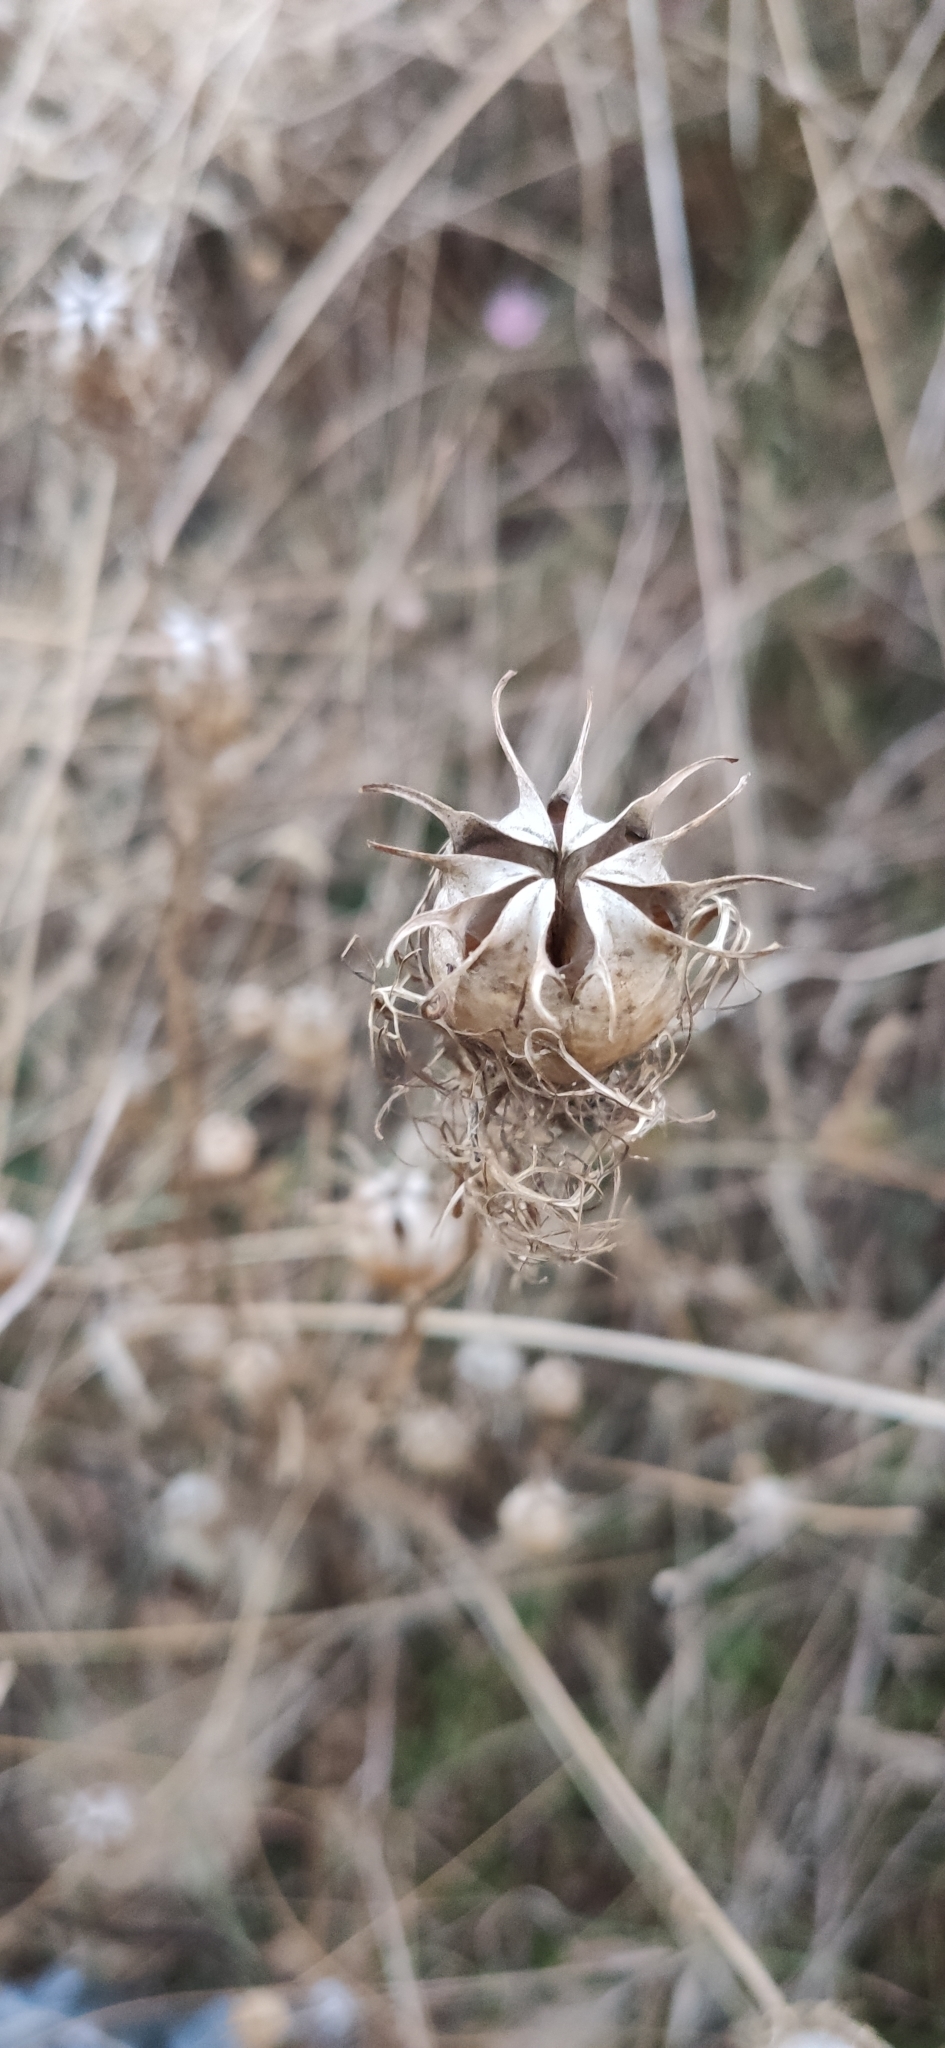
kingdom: Plantae
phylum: Tracheophyta
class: Magnoliopsida
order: Ranunculales
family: Ranunculaceae
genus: Nigella
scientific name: Nigella damascena
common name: Love-in-a-mist
